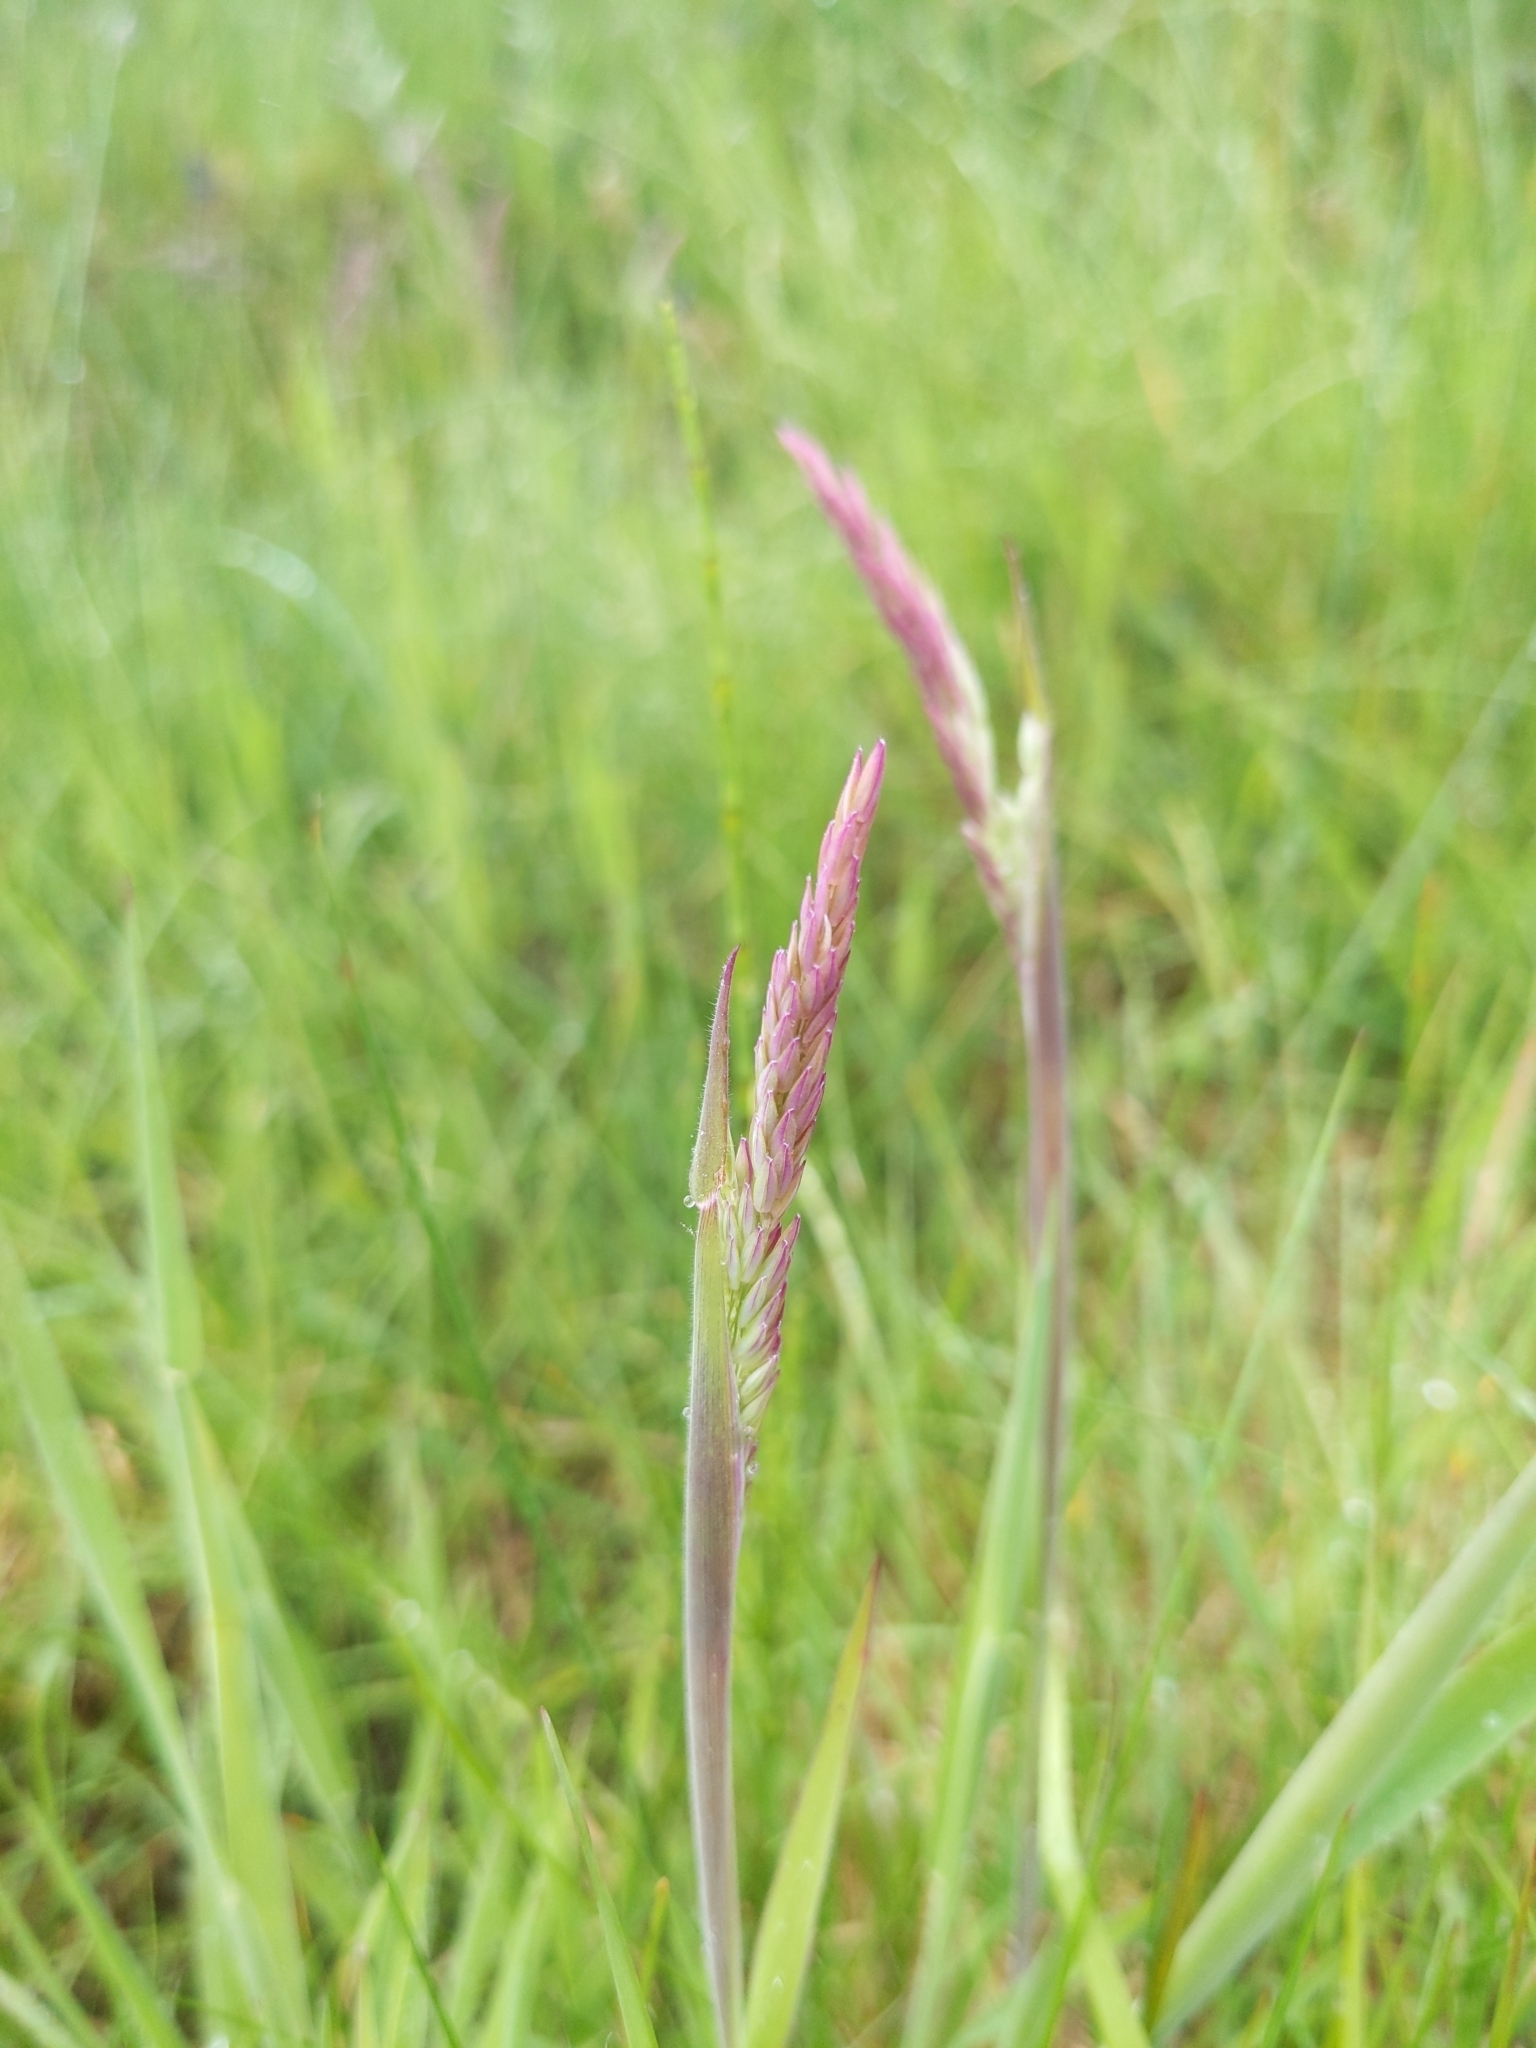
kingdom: Plantae
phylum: Tracheophyta
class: Liliopsida
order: Poales
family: Poaceae
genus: Holcus
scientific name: Holcus lanatus
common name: Yorkshire-fog
